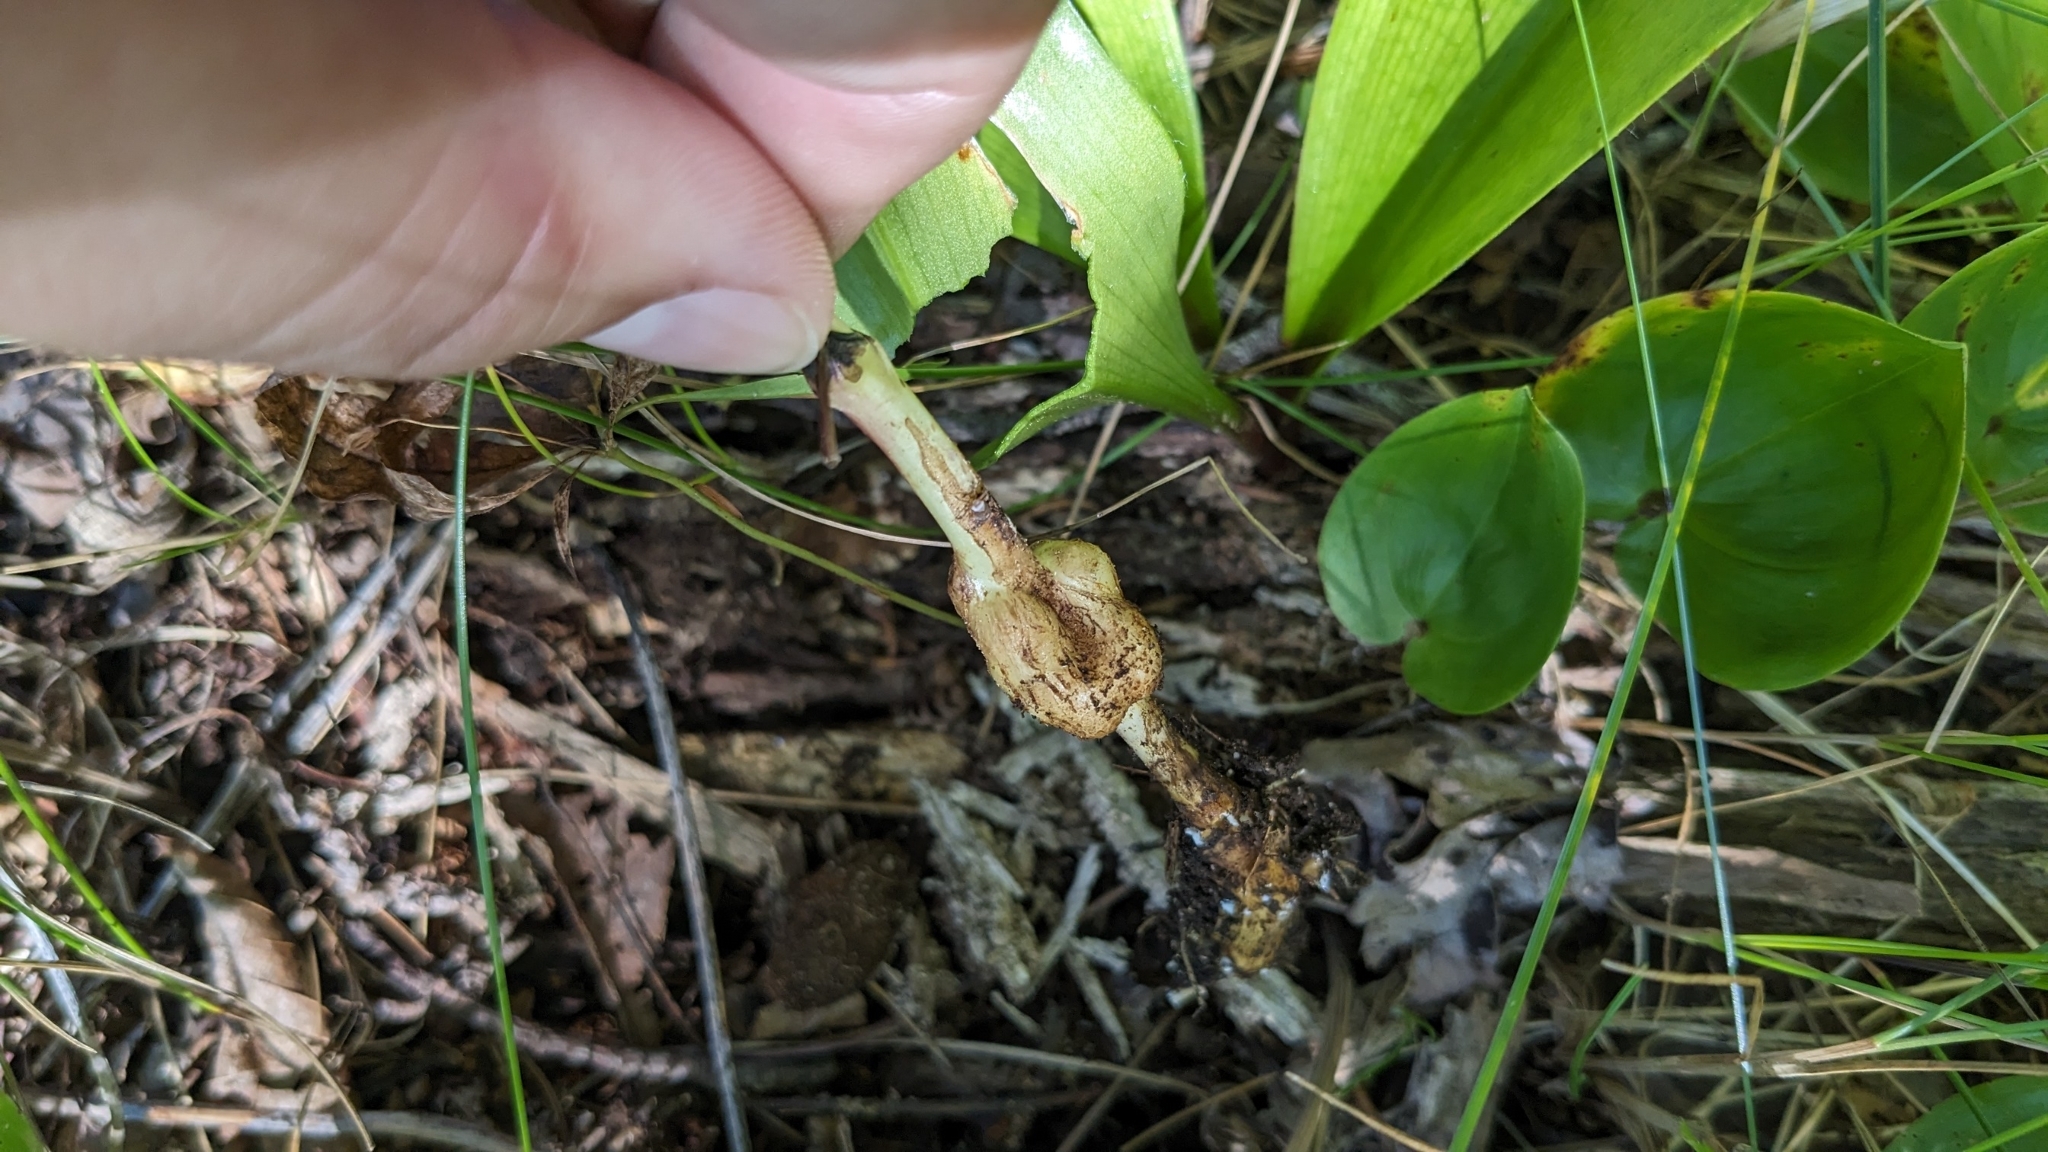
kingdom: Animalia
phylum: Arthropoda
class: Insecta
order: Hymenoptera
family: Cynipidae
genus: Aulacidea
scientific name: Aulacidea
